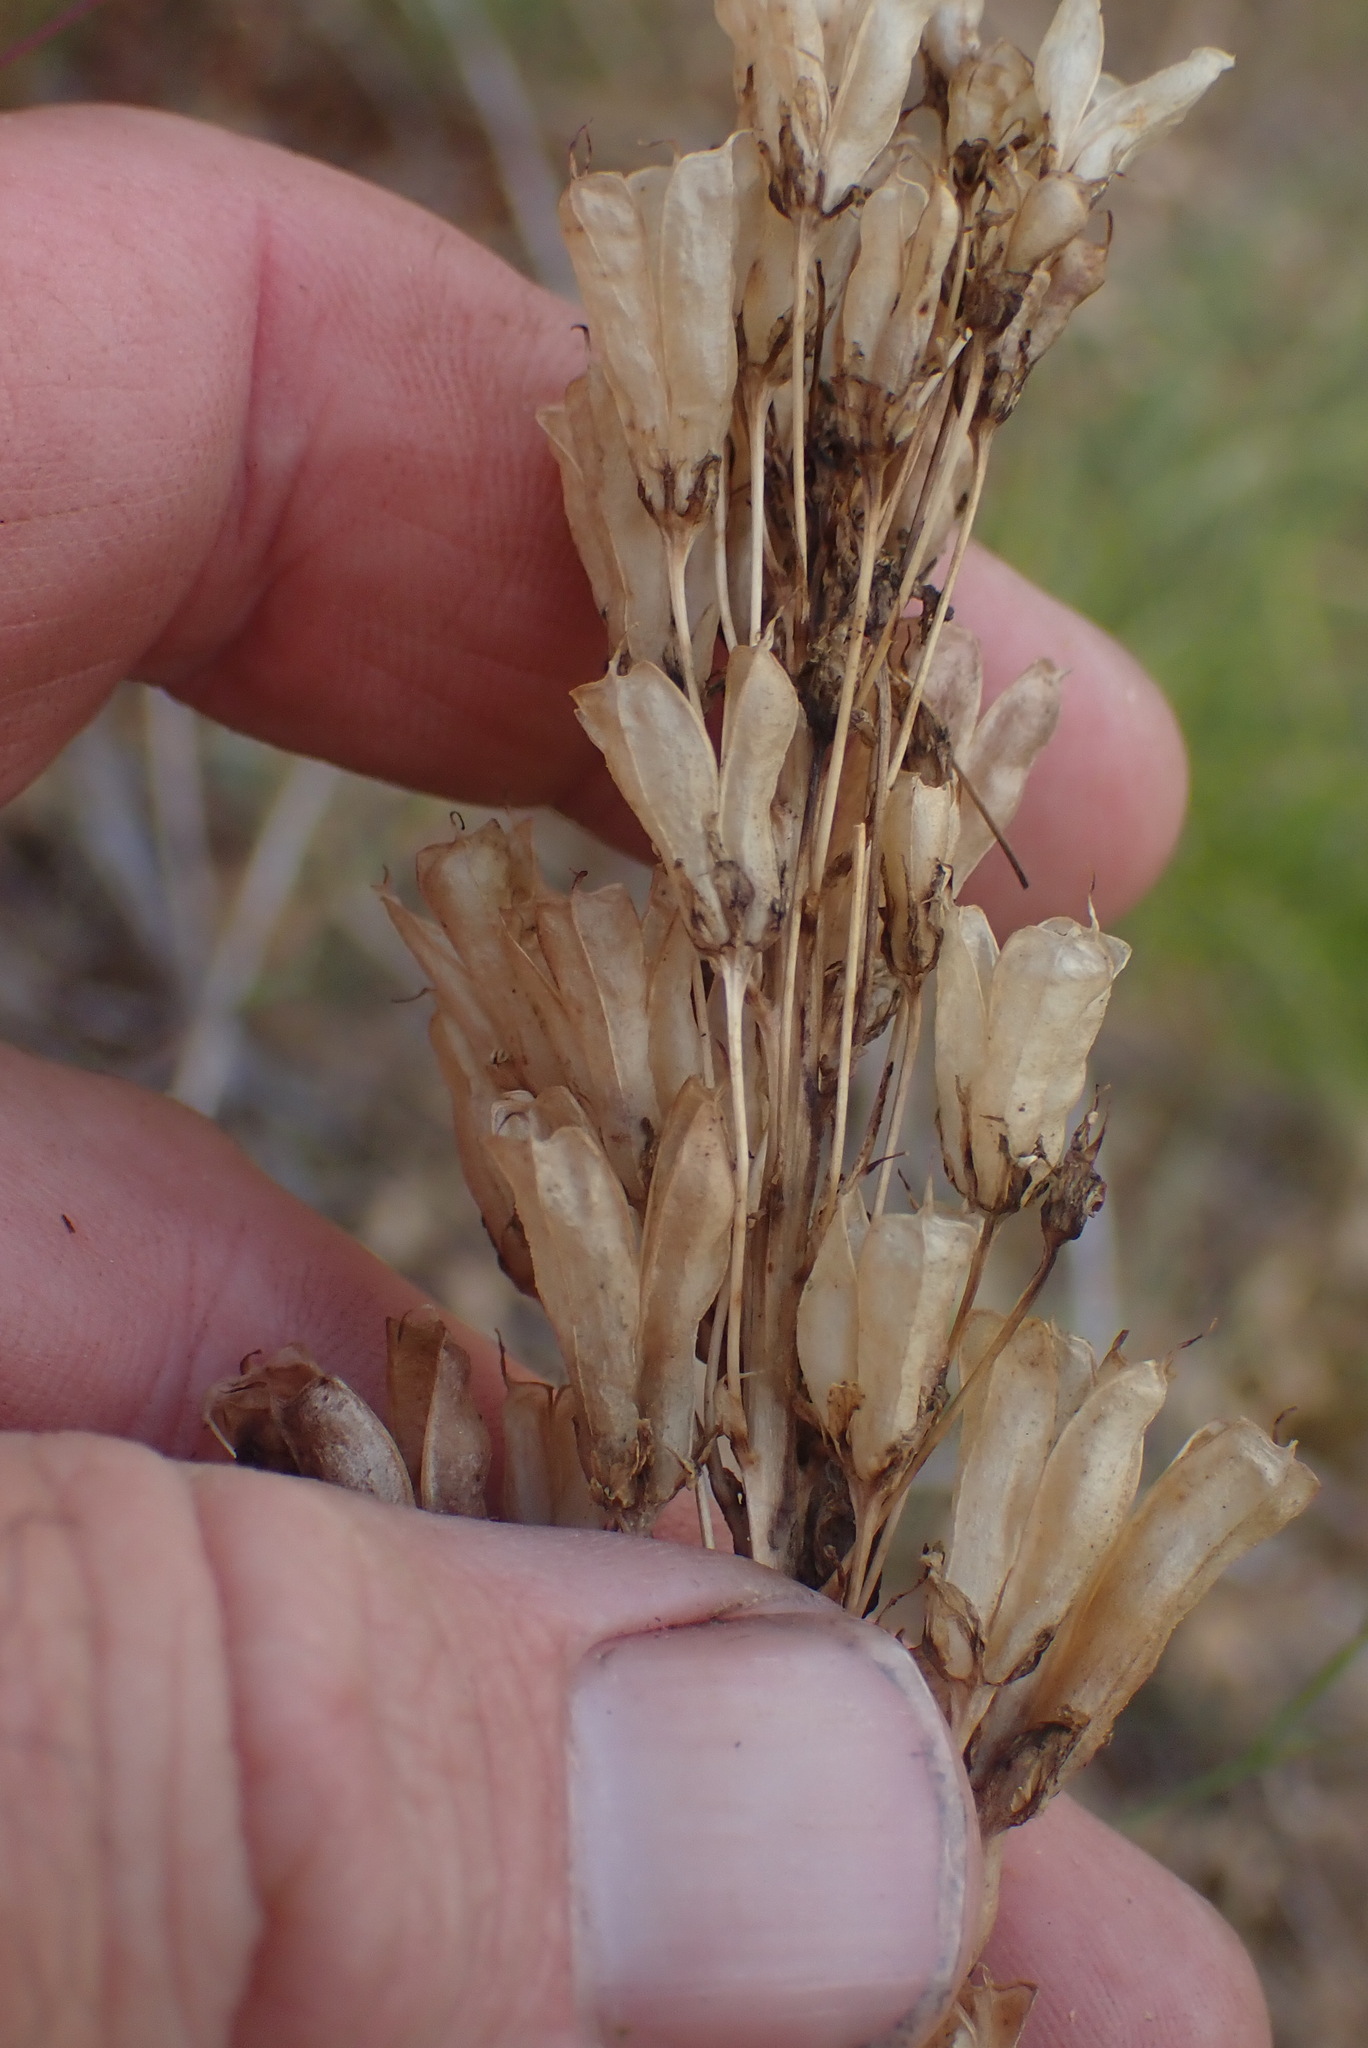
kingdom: Plantae
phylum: Tracheophyta
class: Liliopsida
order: Liliales
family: Melanthiaceae
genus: Toxicoscordion
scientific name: Toxicoscordion venenosum
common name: Meadow death camas
